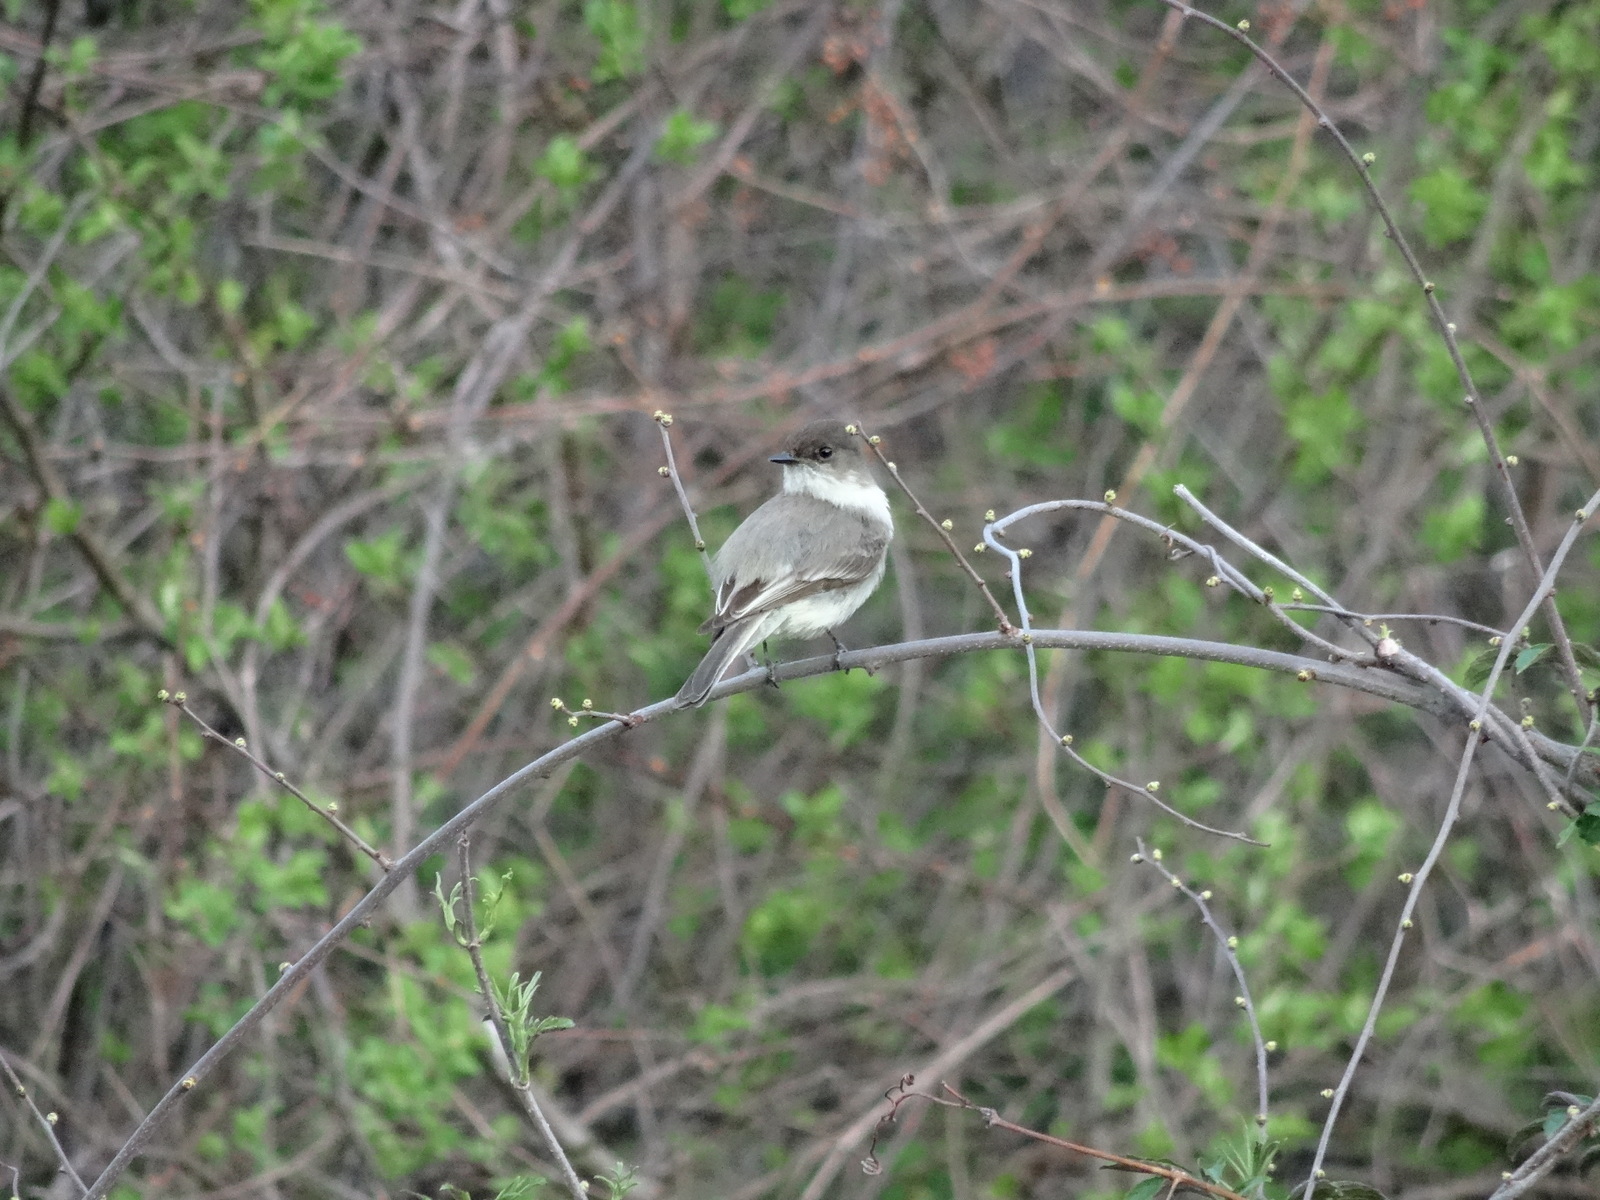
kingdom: Animalia
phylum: Chordata
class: Aves
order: Passeriformes
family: Tyrannidae
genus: Sayornis
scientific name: Sayornis phoebe
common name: Eastern phoebe
